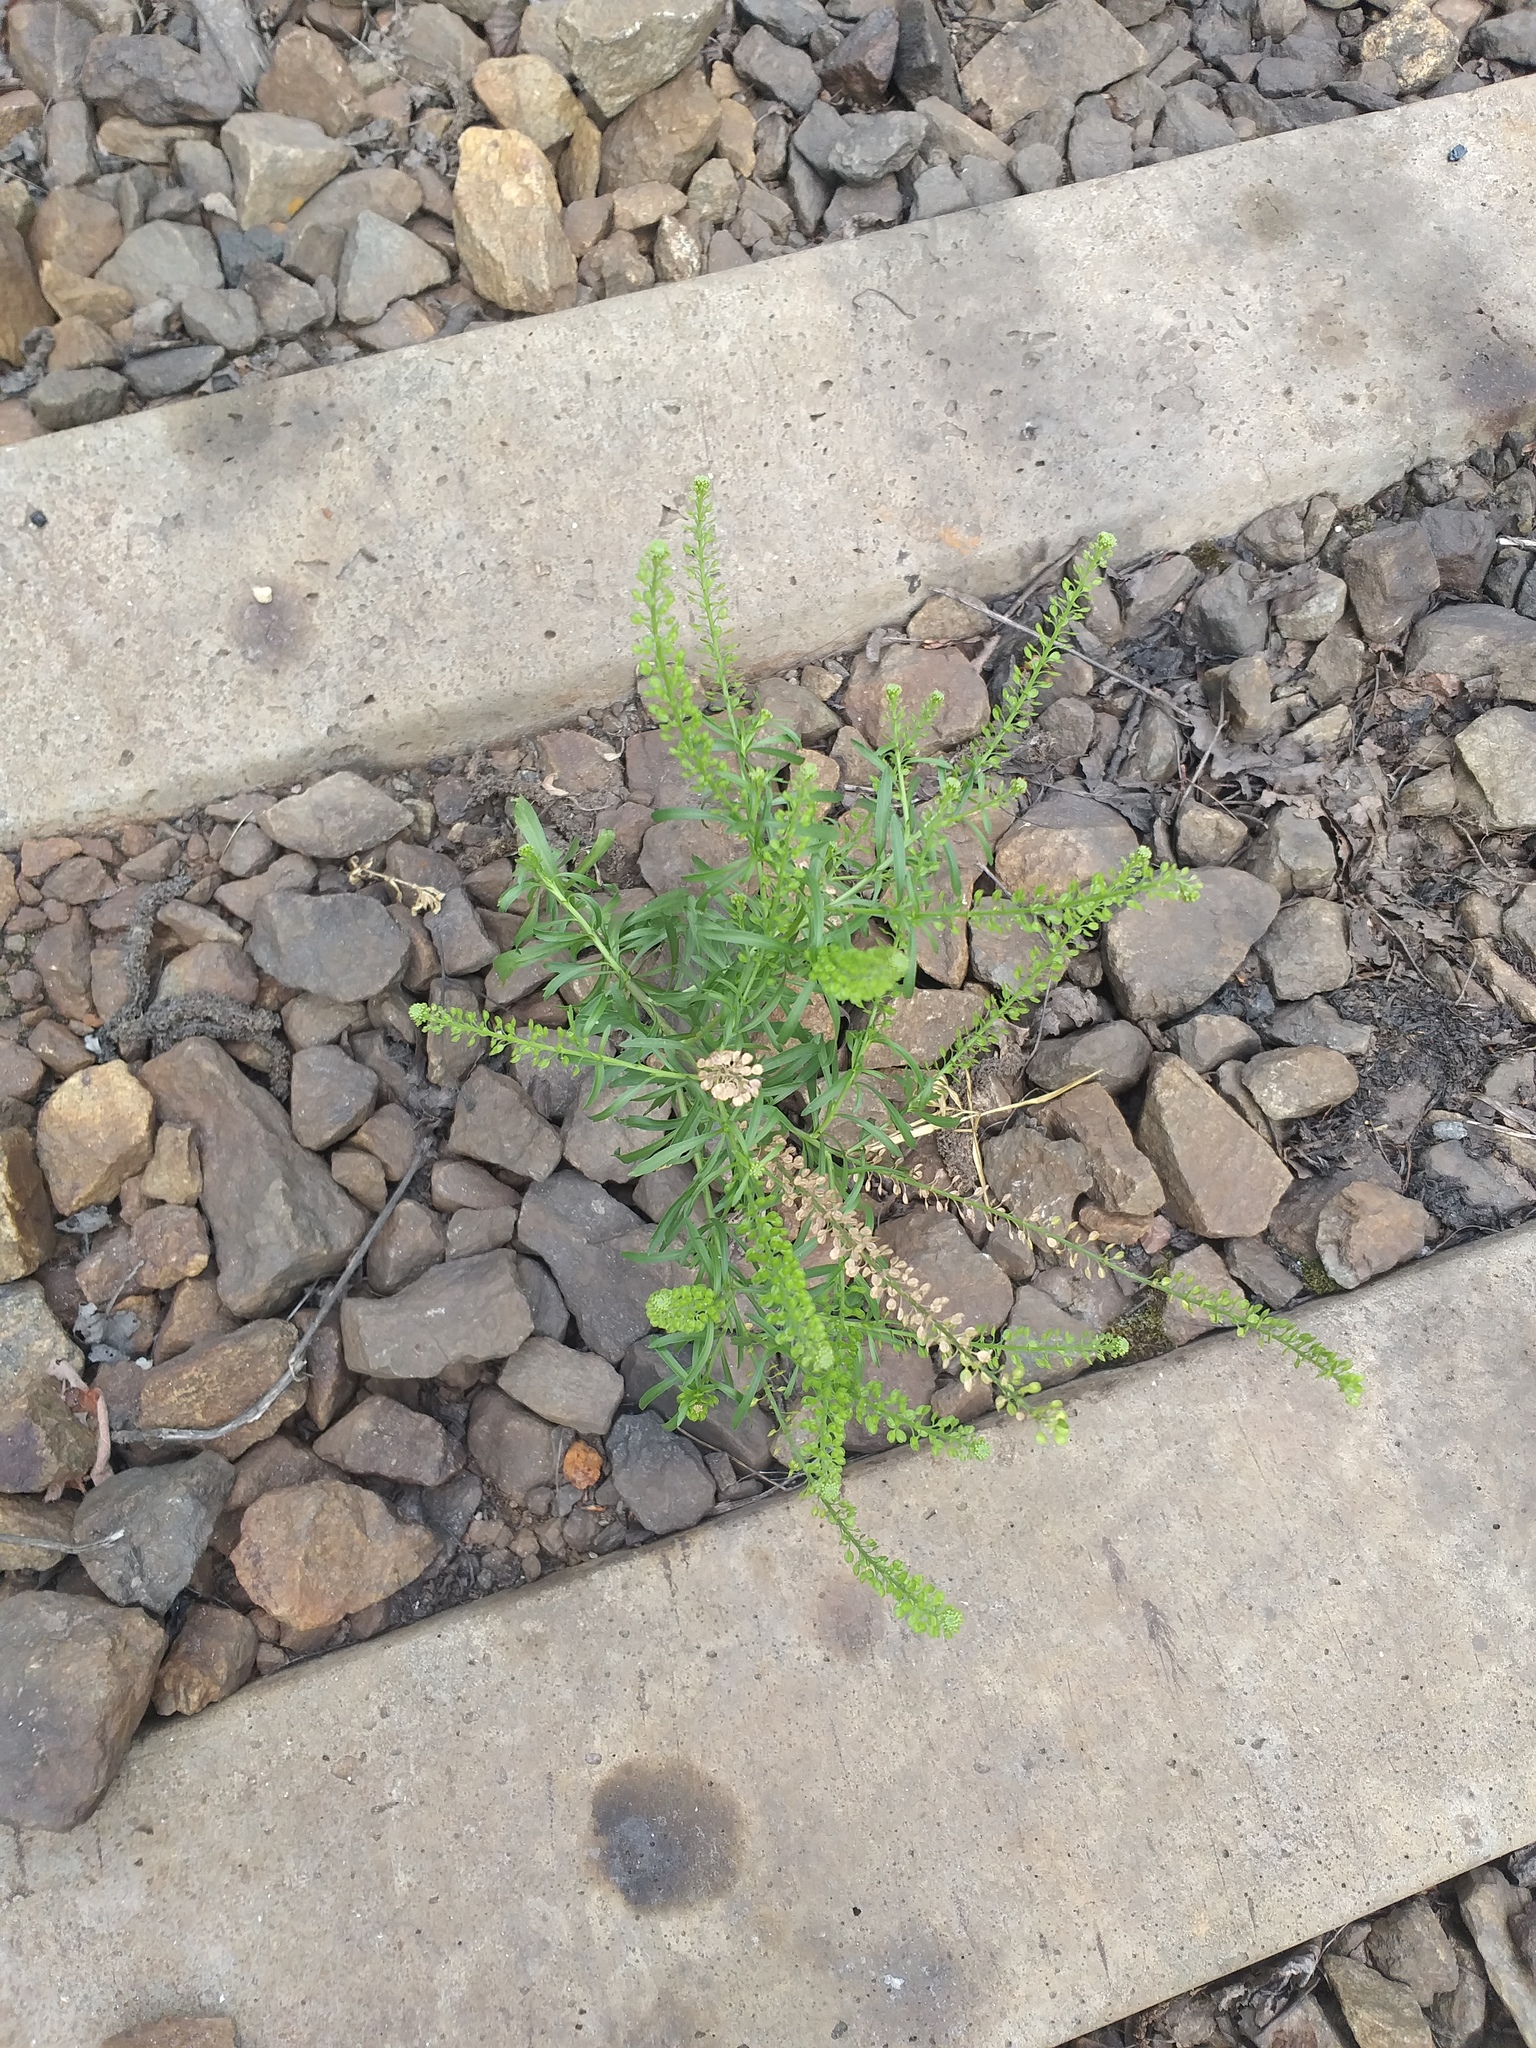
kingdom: Plantae
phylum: Tracheophyta
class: Magnoliopsida
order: Brassicales
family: Brassicaceae
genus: Lepidium
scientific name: Lepidium densiflorum
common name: Miner's pepperwort
